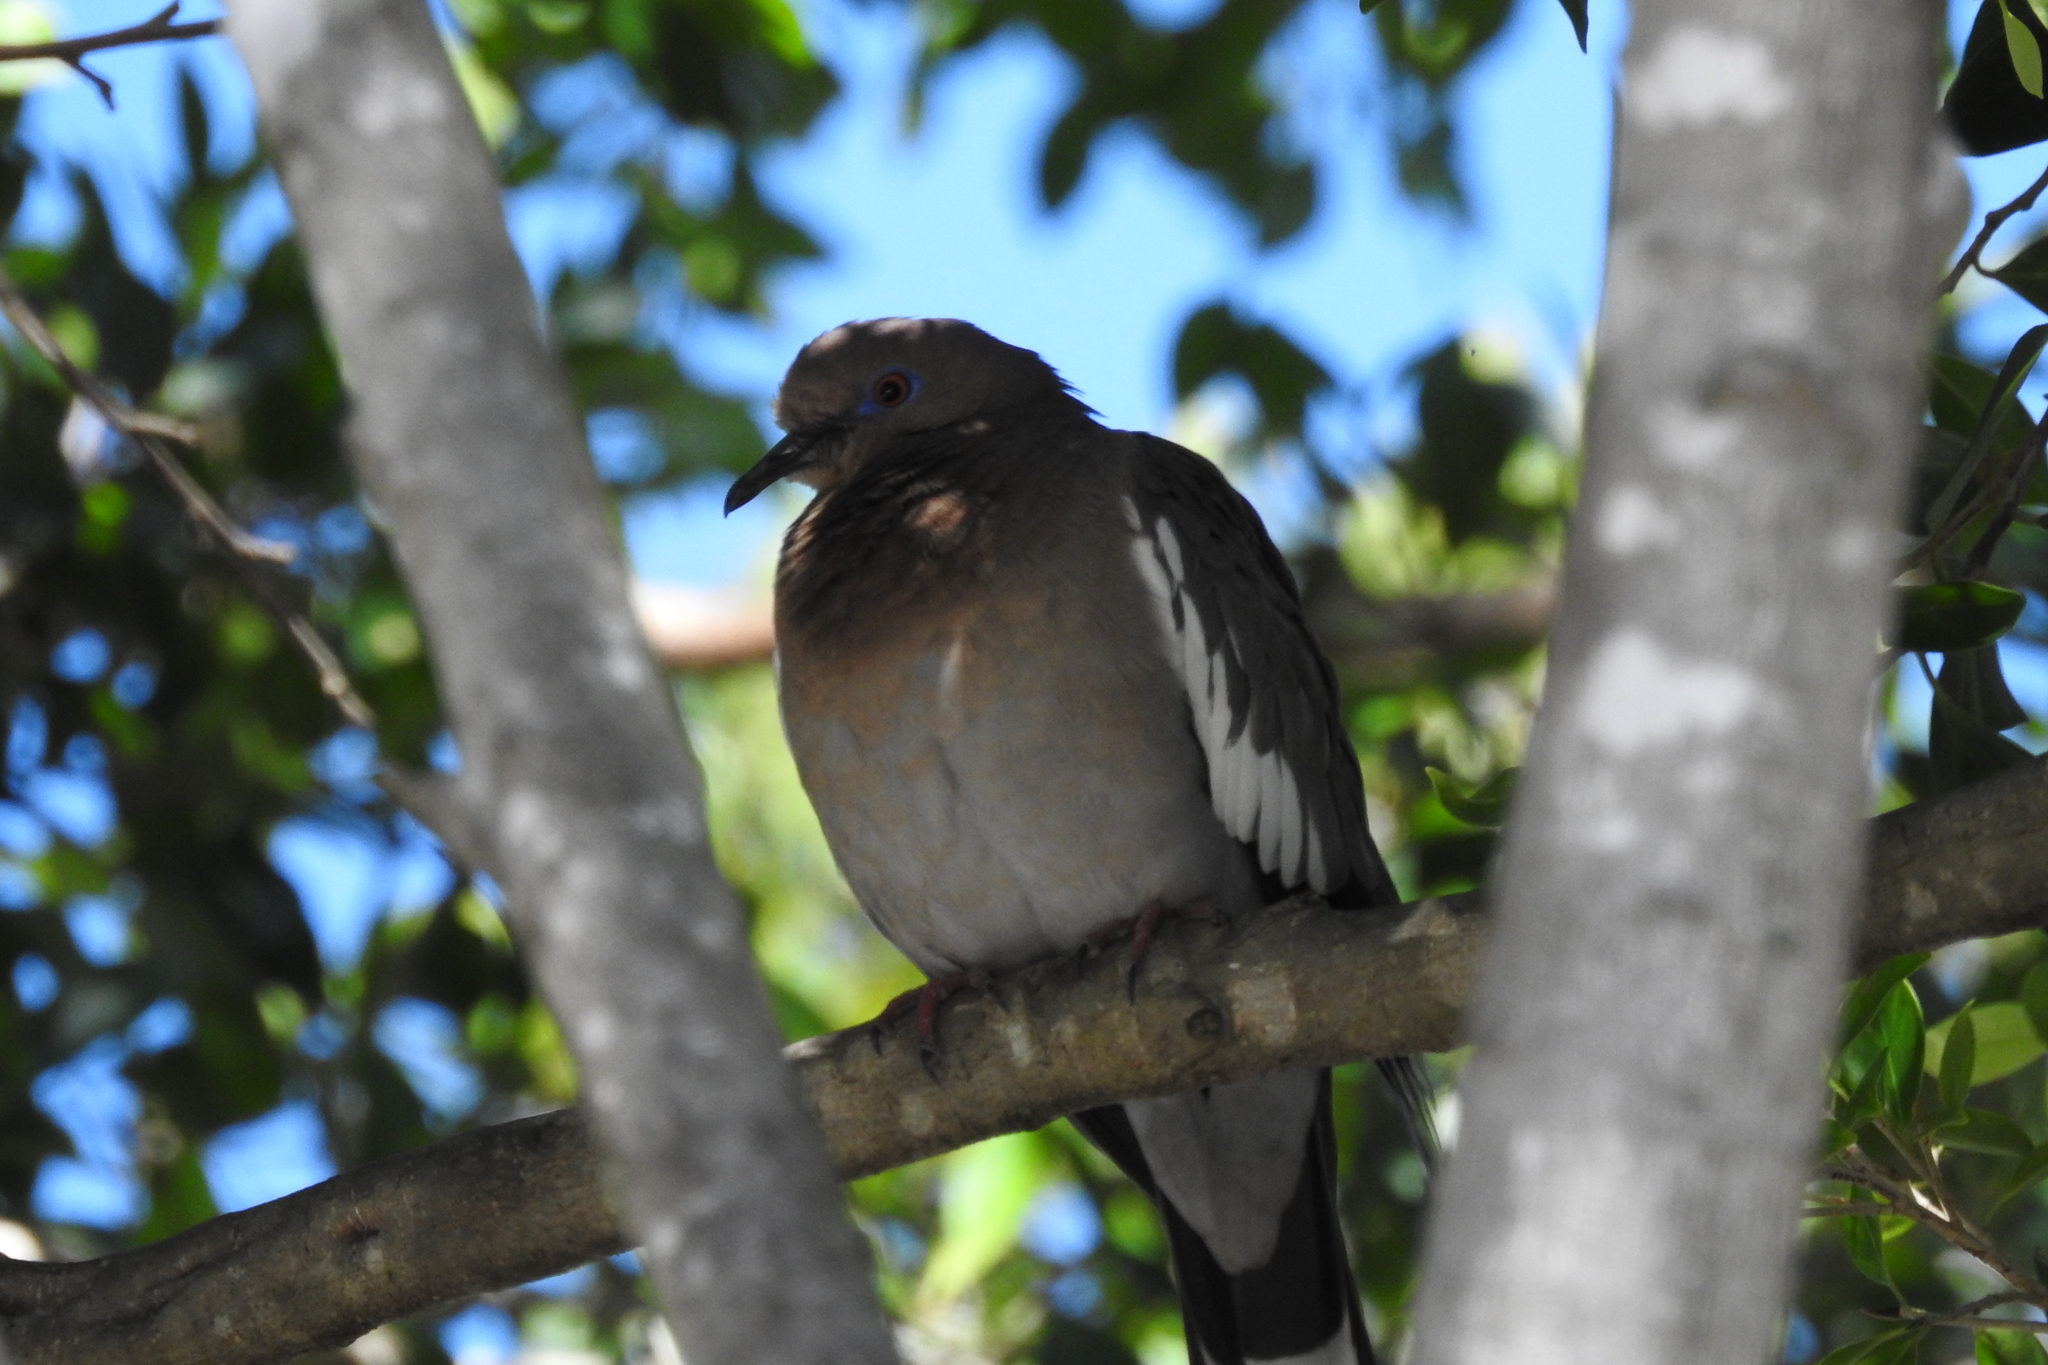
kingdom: Animalia
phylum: Chordata
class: Aves
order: Columbiformes
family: Columbidae
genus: Zenaida
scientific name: Zenaida asiatica
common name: White-winged dove
